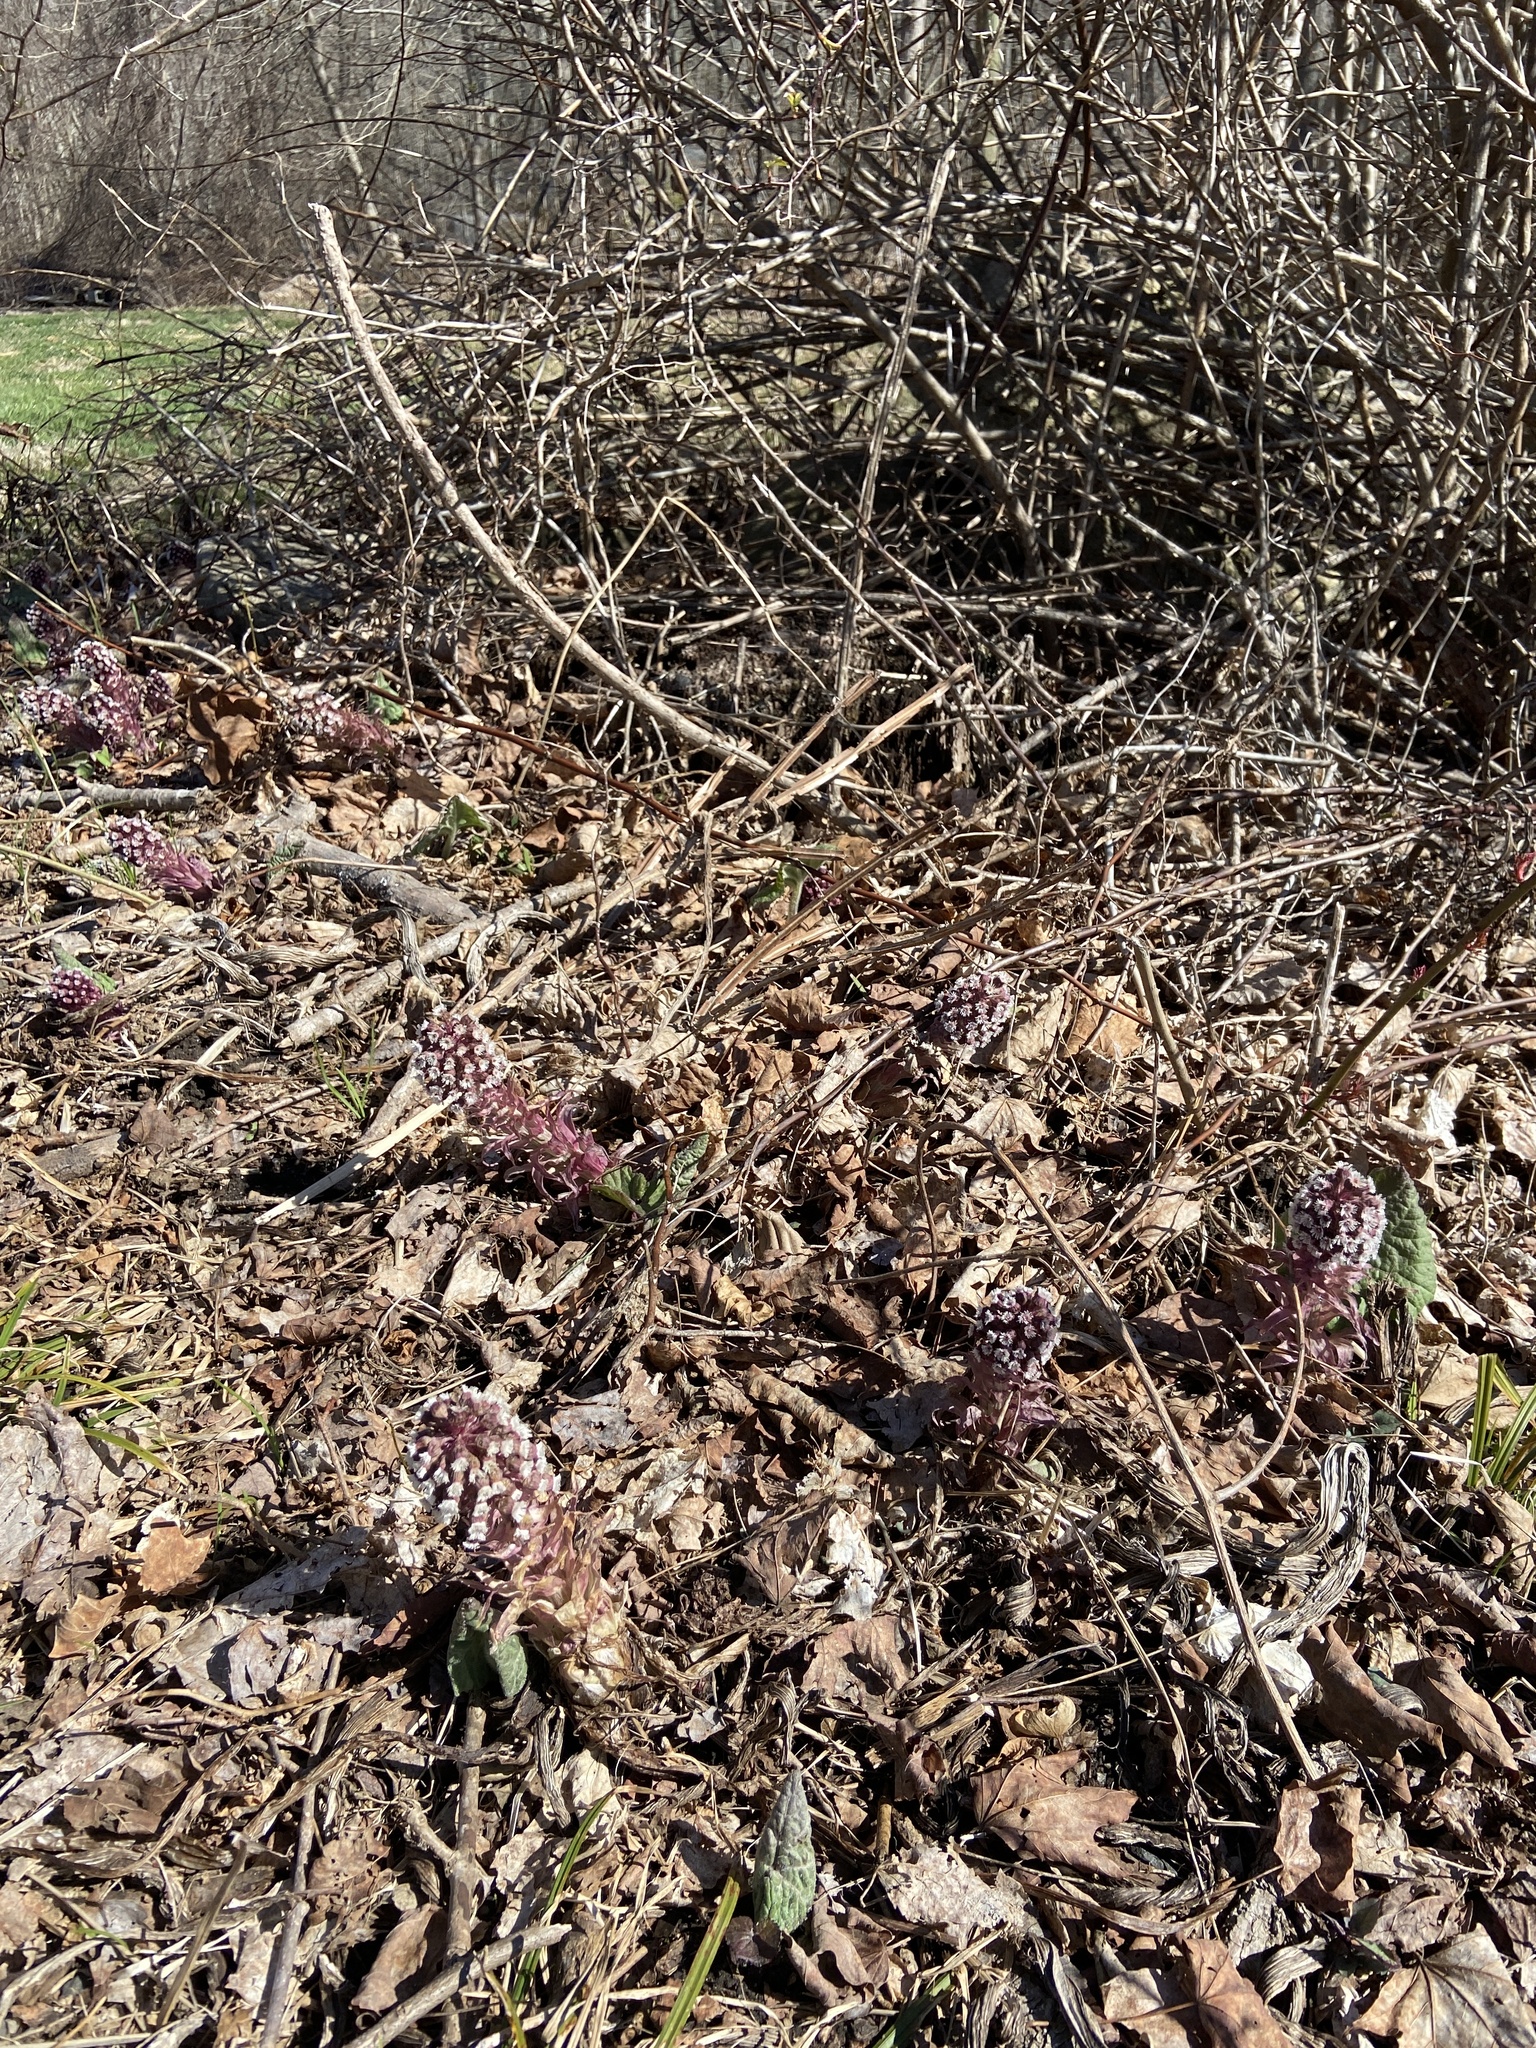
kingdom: Plantae
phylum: Tracheophyta
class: Magnoliopsida
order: Asterales
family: Asteraceae
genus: Petasites
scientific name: Petasites hybridus
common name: Butterbur
